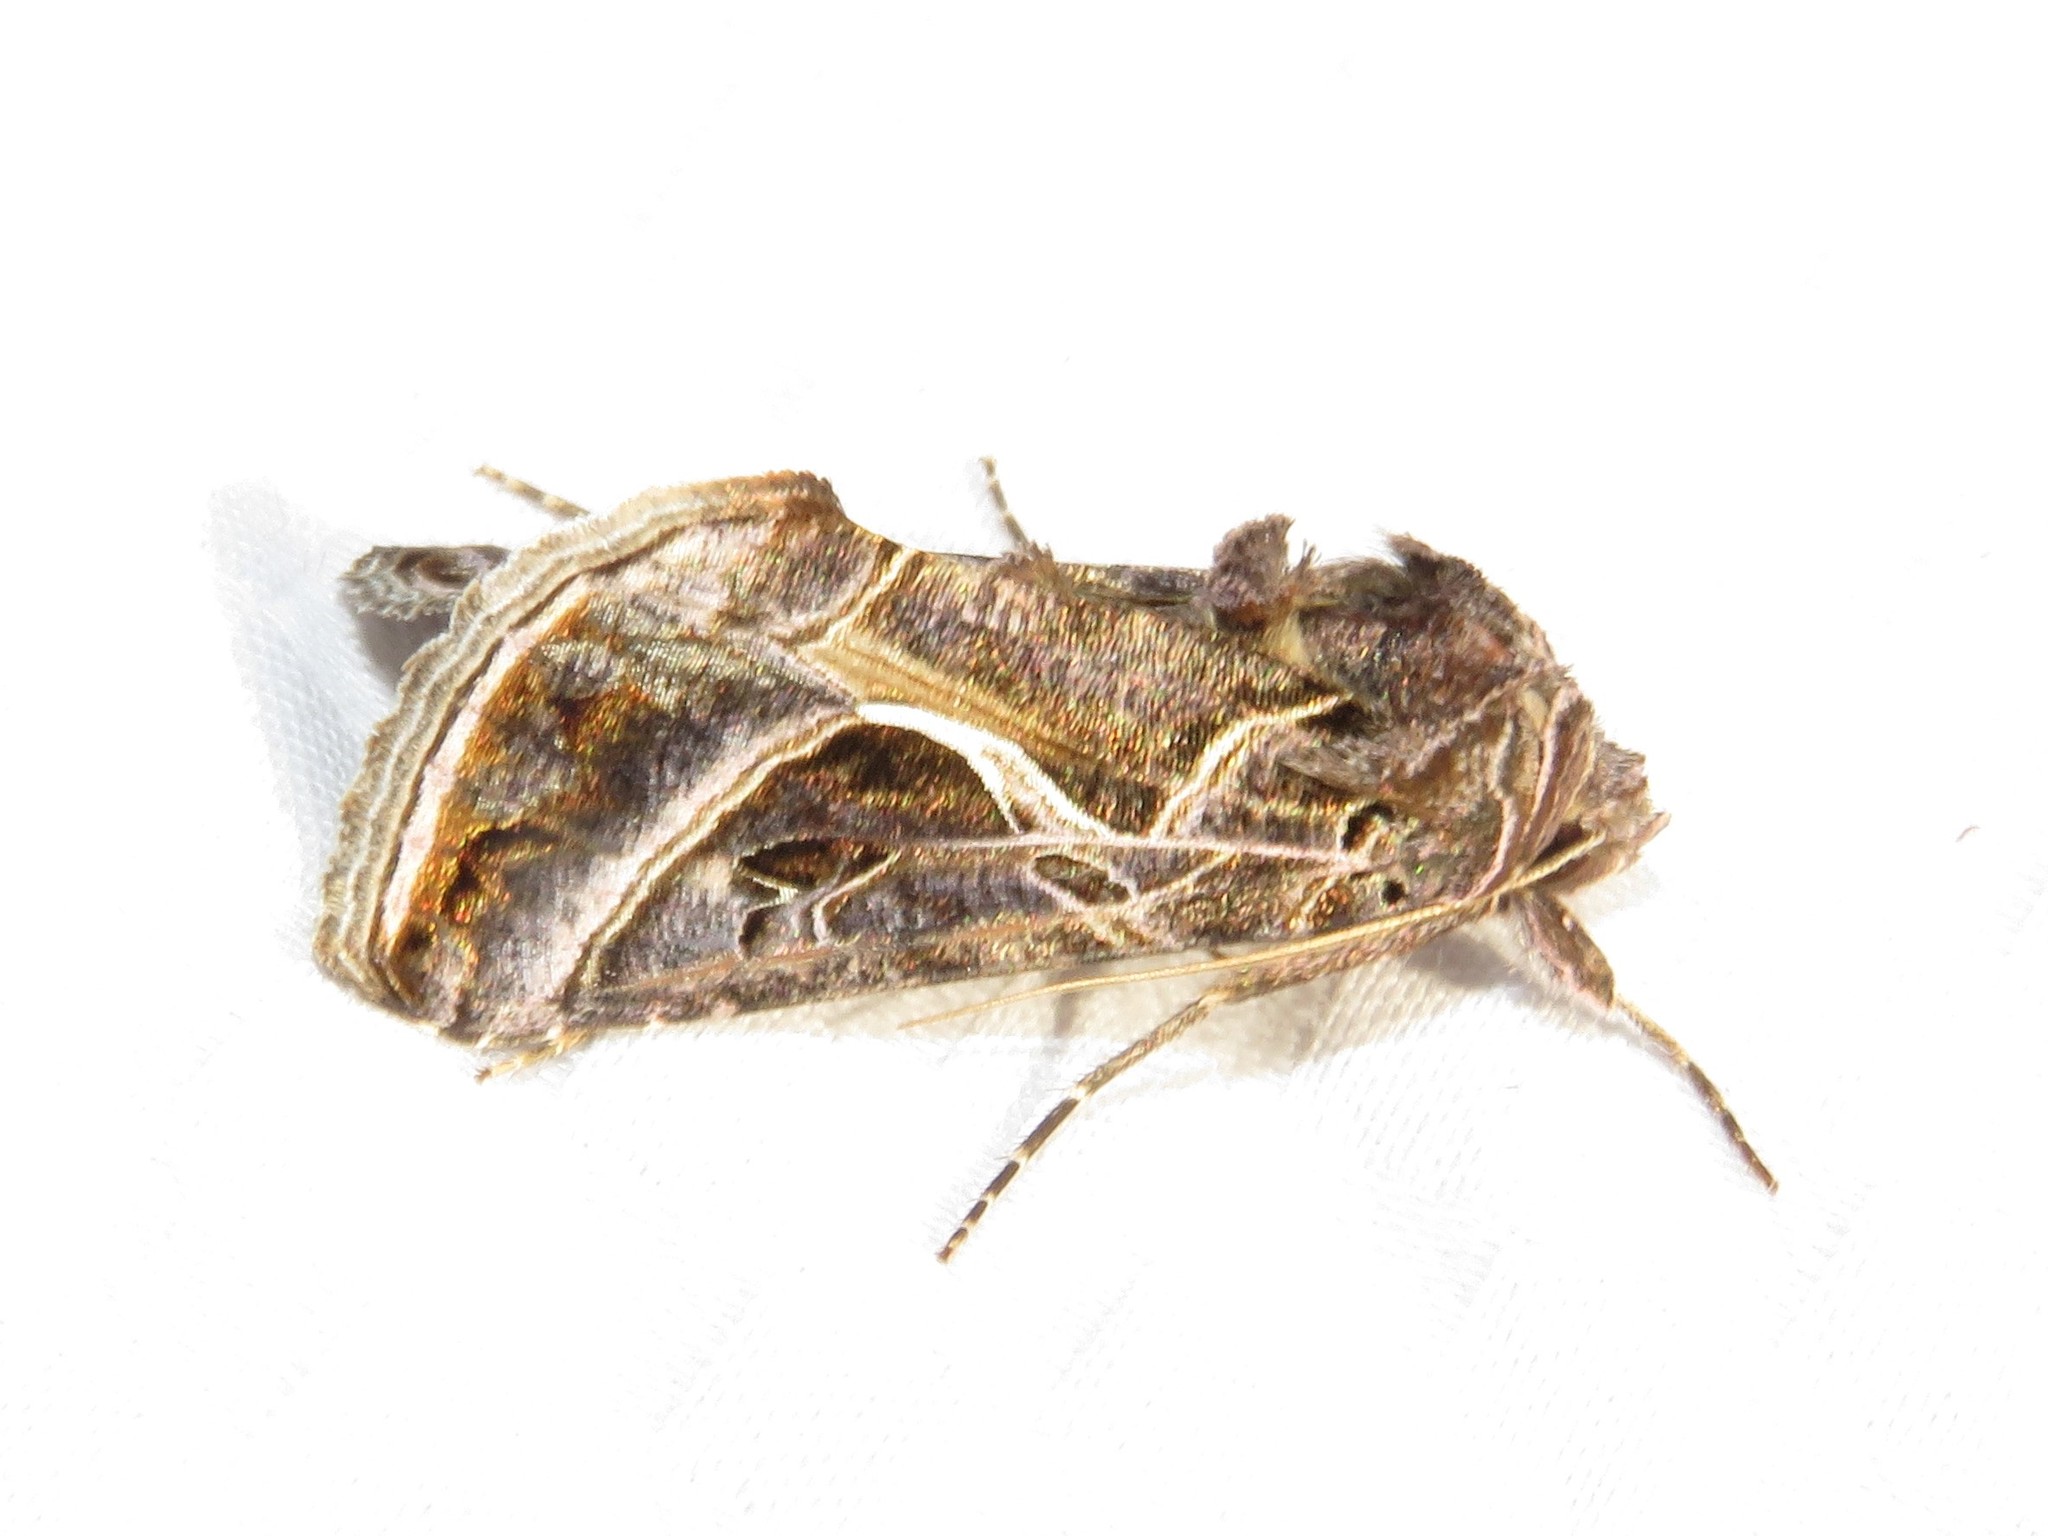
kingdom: Animalia
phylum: Arthropoda
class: Insecta
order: Lepidoptera
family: Noctuidae
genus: Autographa
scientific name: Autographa flagellum
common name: Silver whip moth
